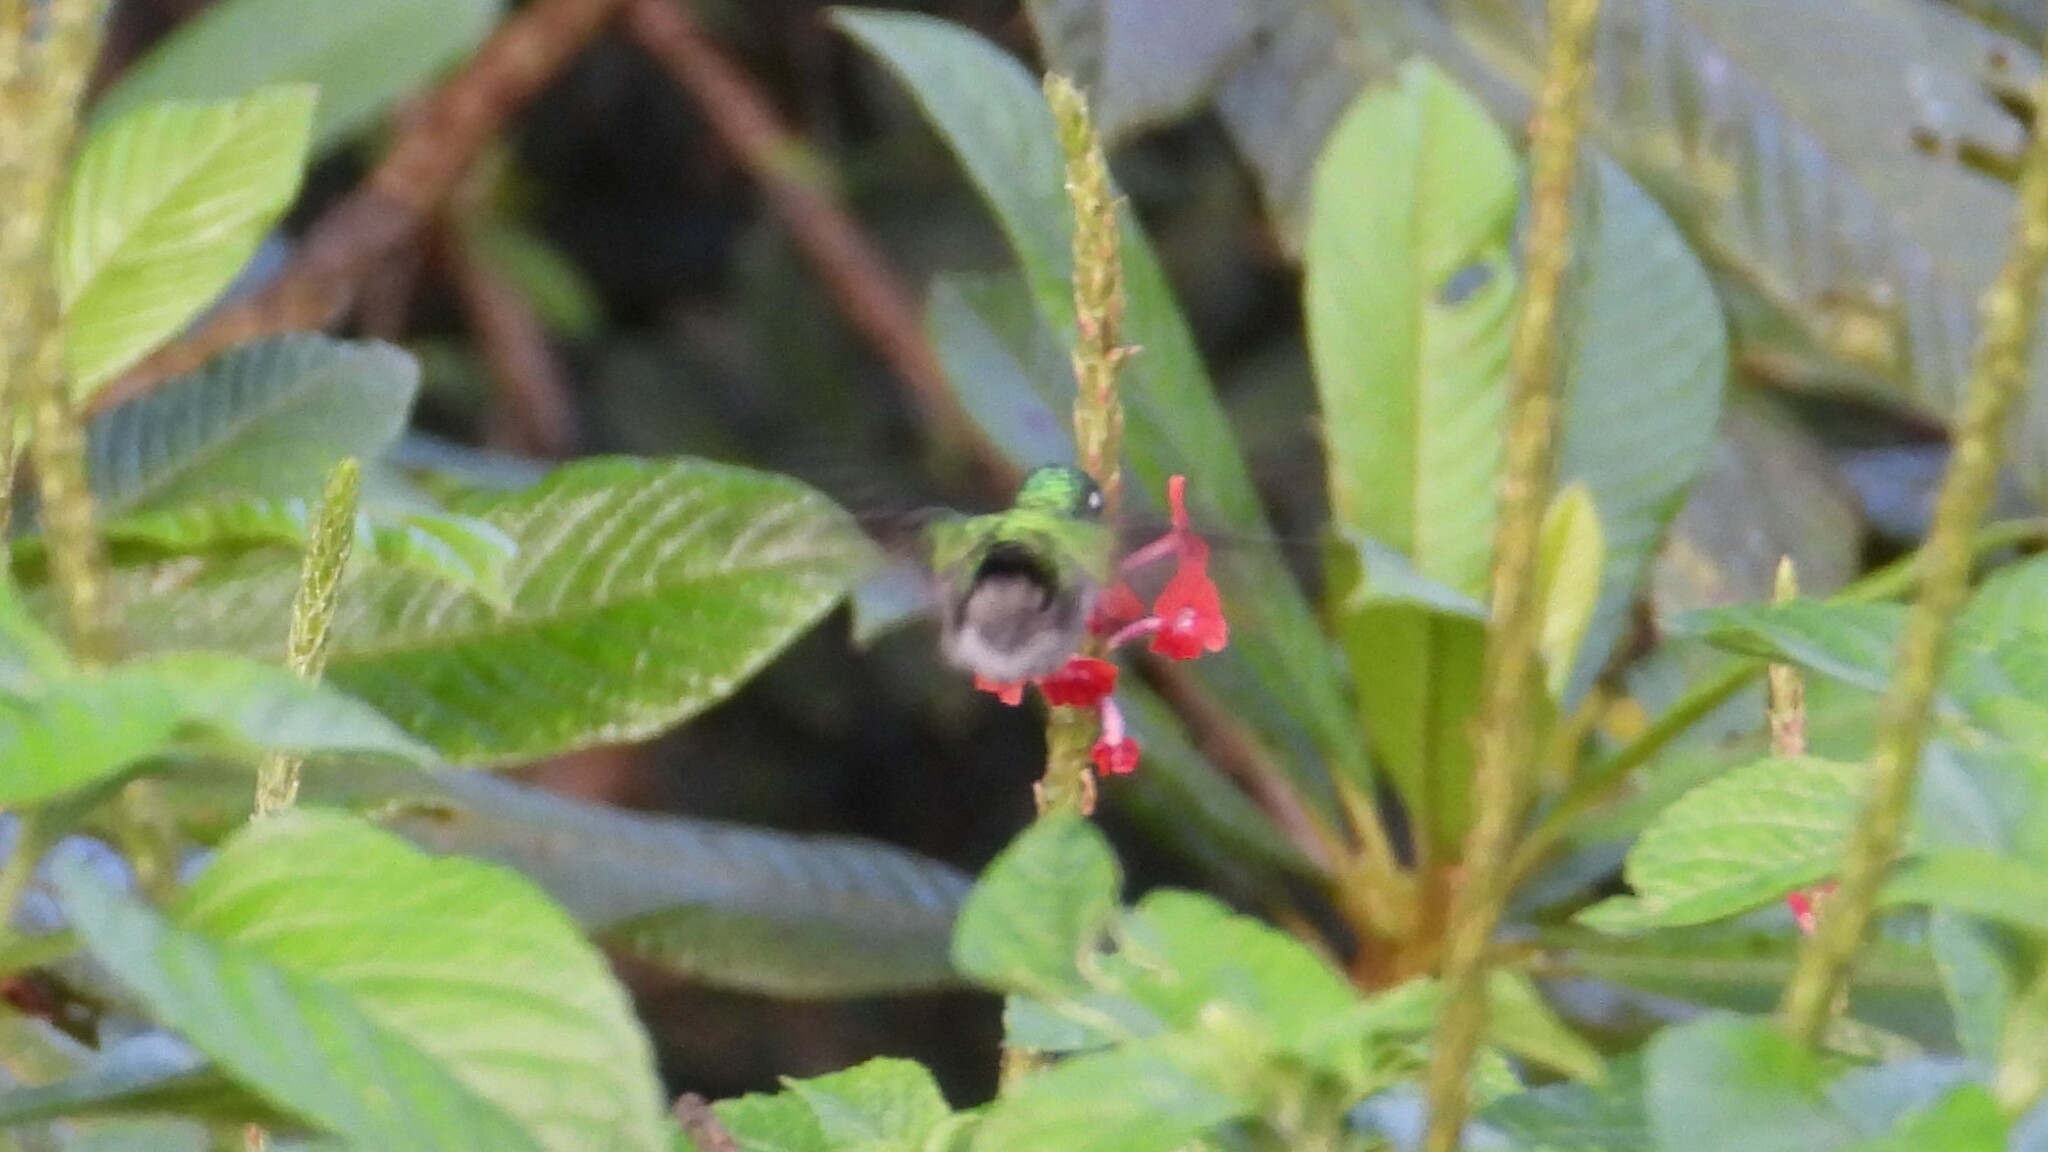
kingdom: Animalia
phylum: Chordata
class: Aves
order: Apodiformes
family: Trochilidae
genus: Klais
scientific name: Klais guimeti
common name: Violet-headed hummingbird
